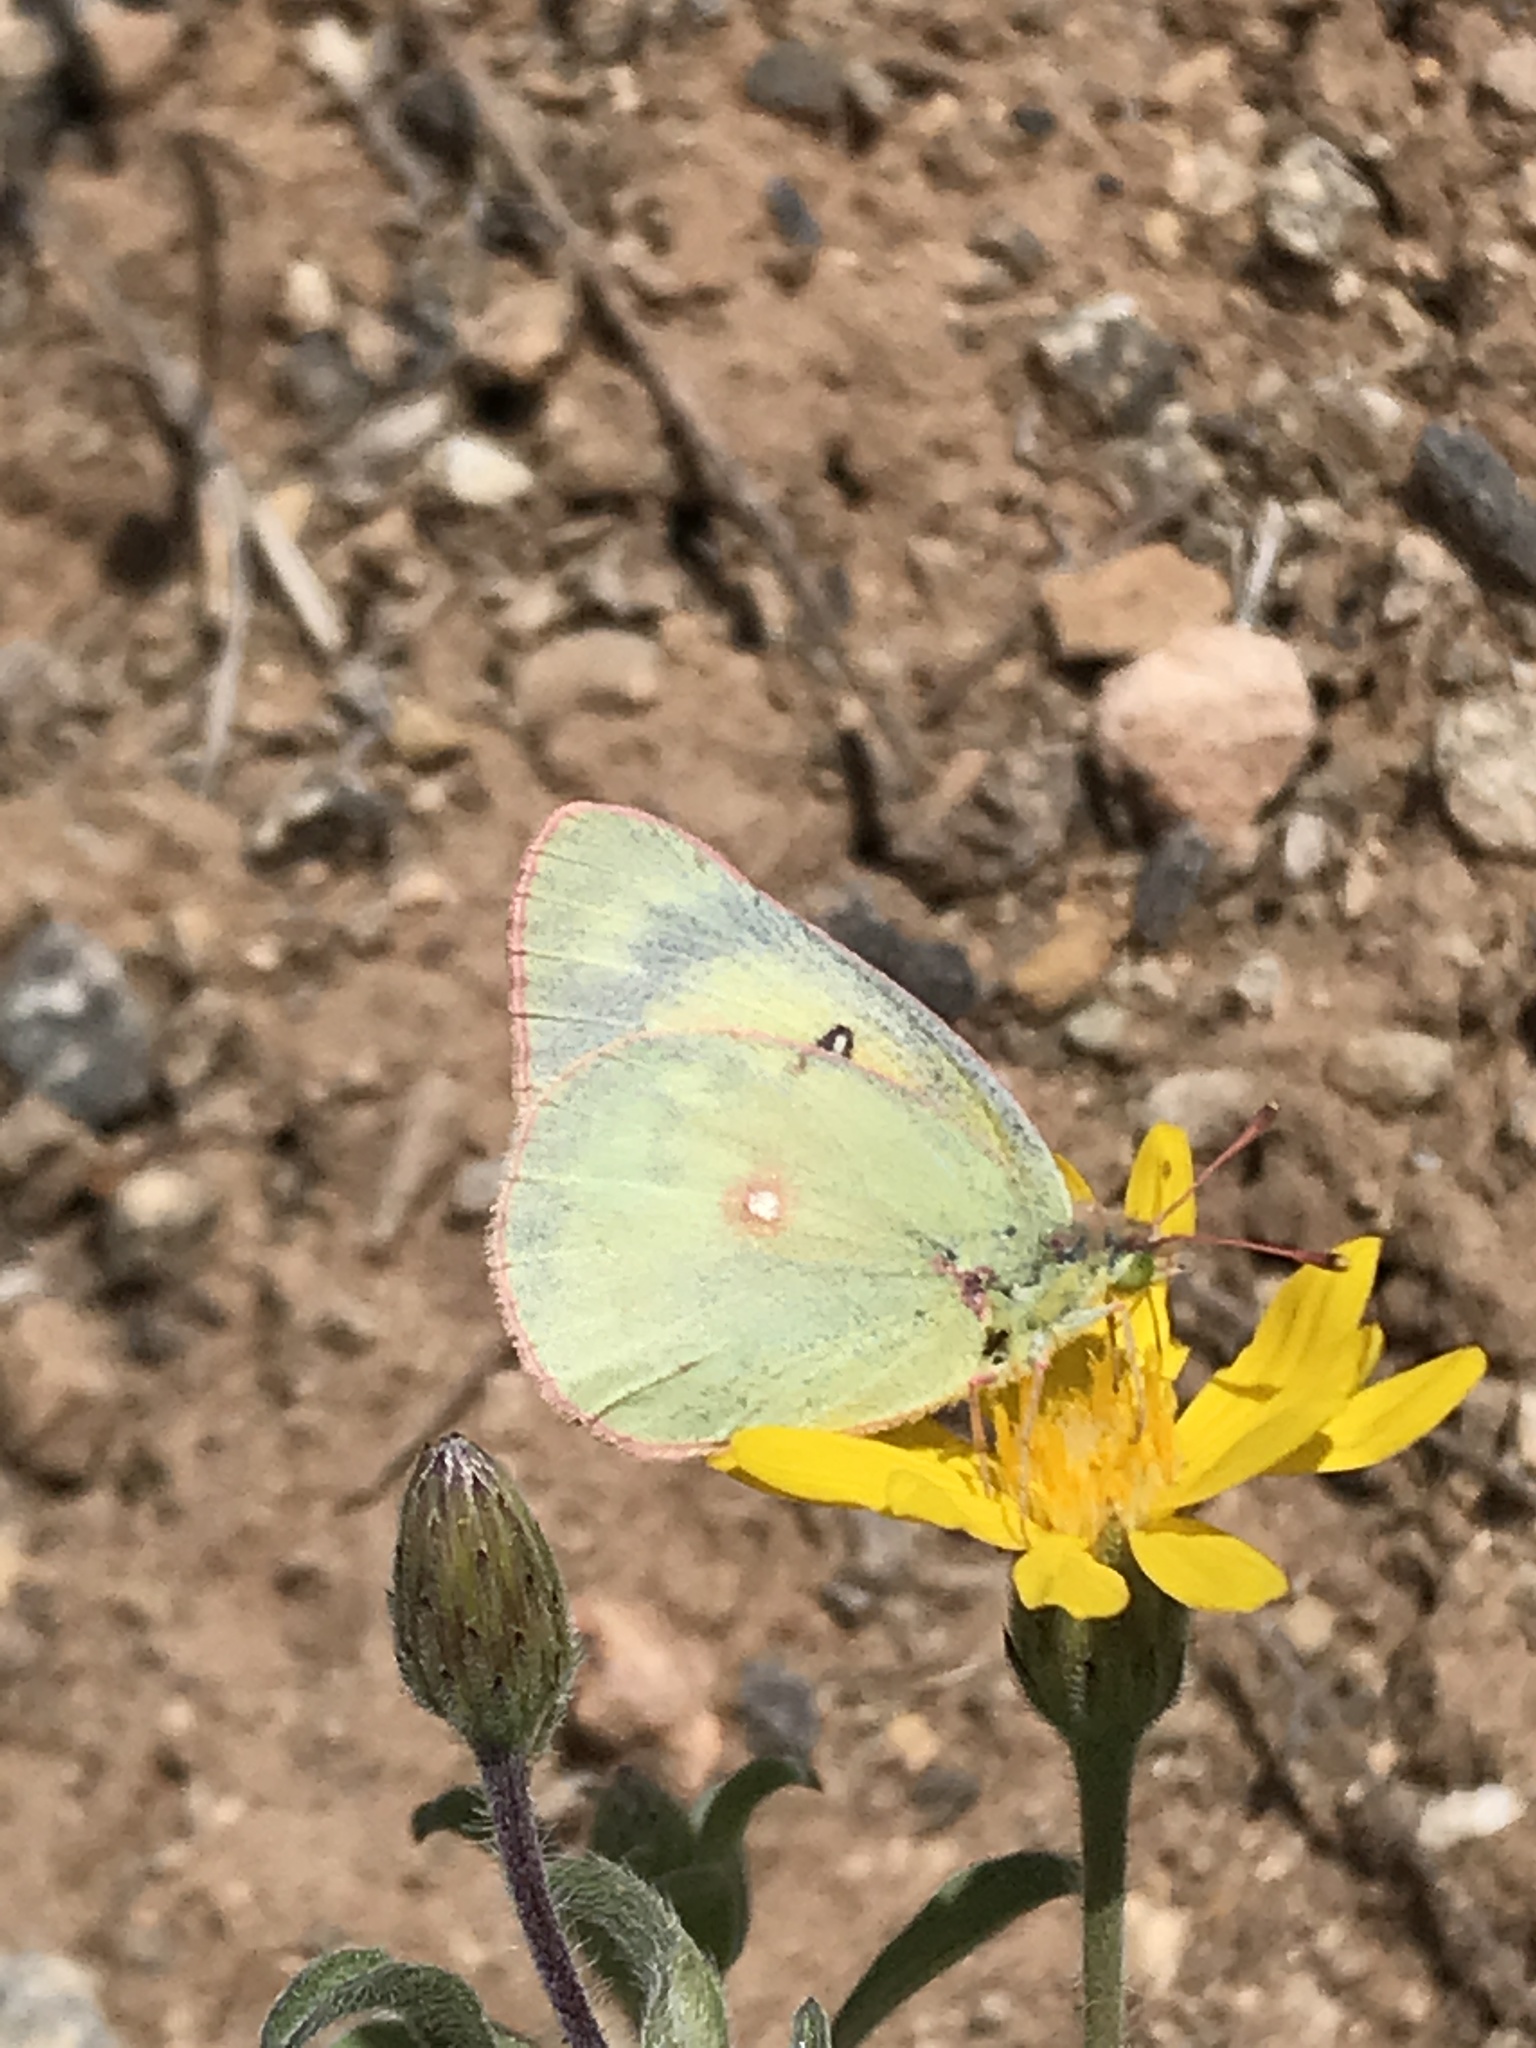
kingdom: Animalia
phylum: Arthropoda
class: Insecta
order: Lepidoptera
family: Pieridae
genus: Colias
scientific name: Colias eurytheme
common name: Alfalfa butterfly
